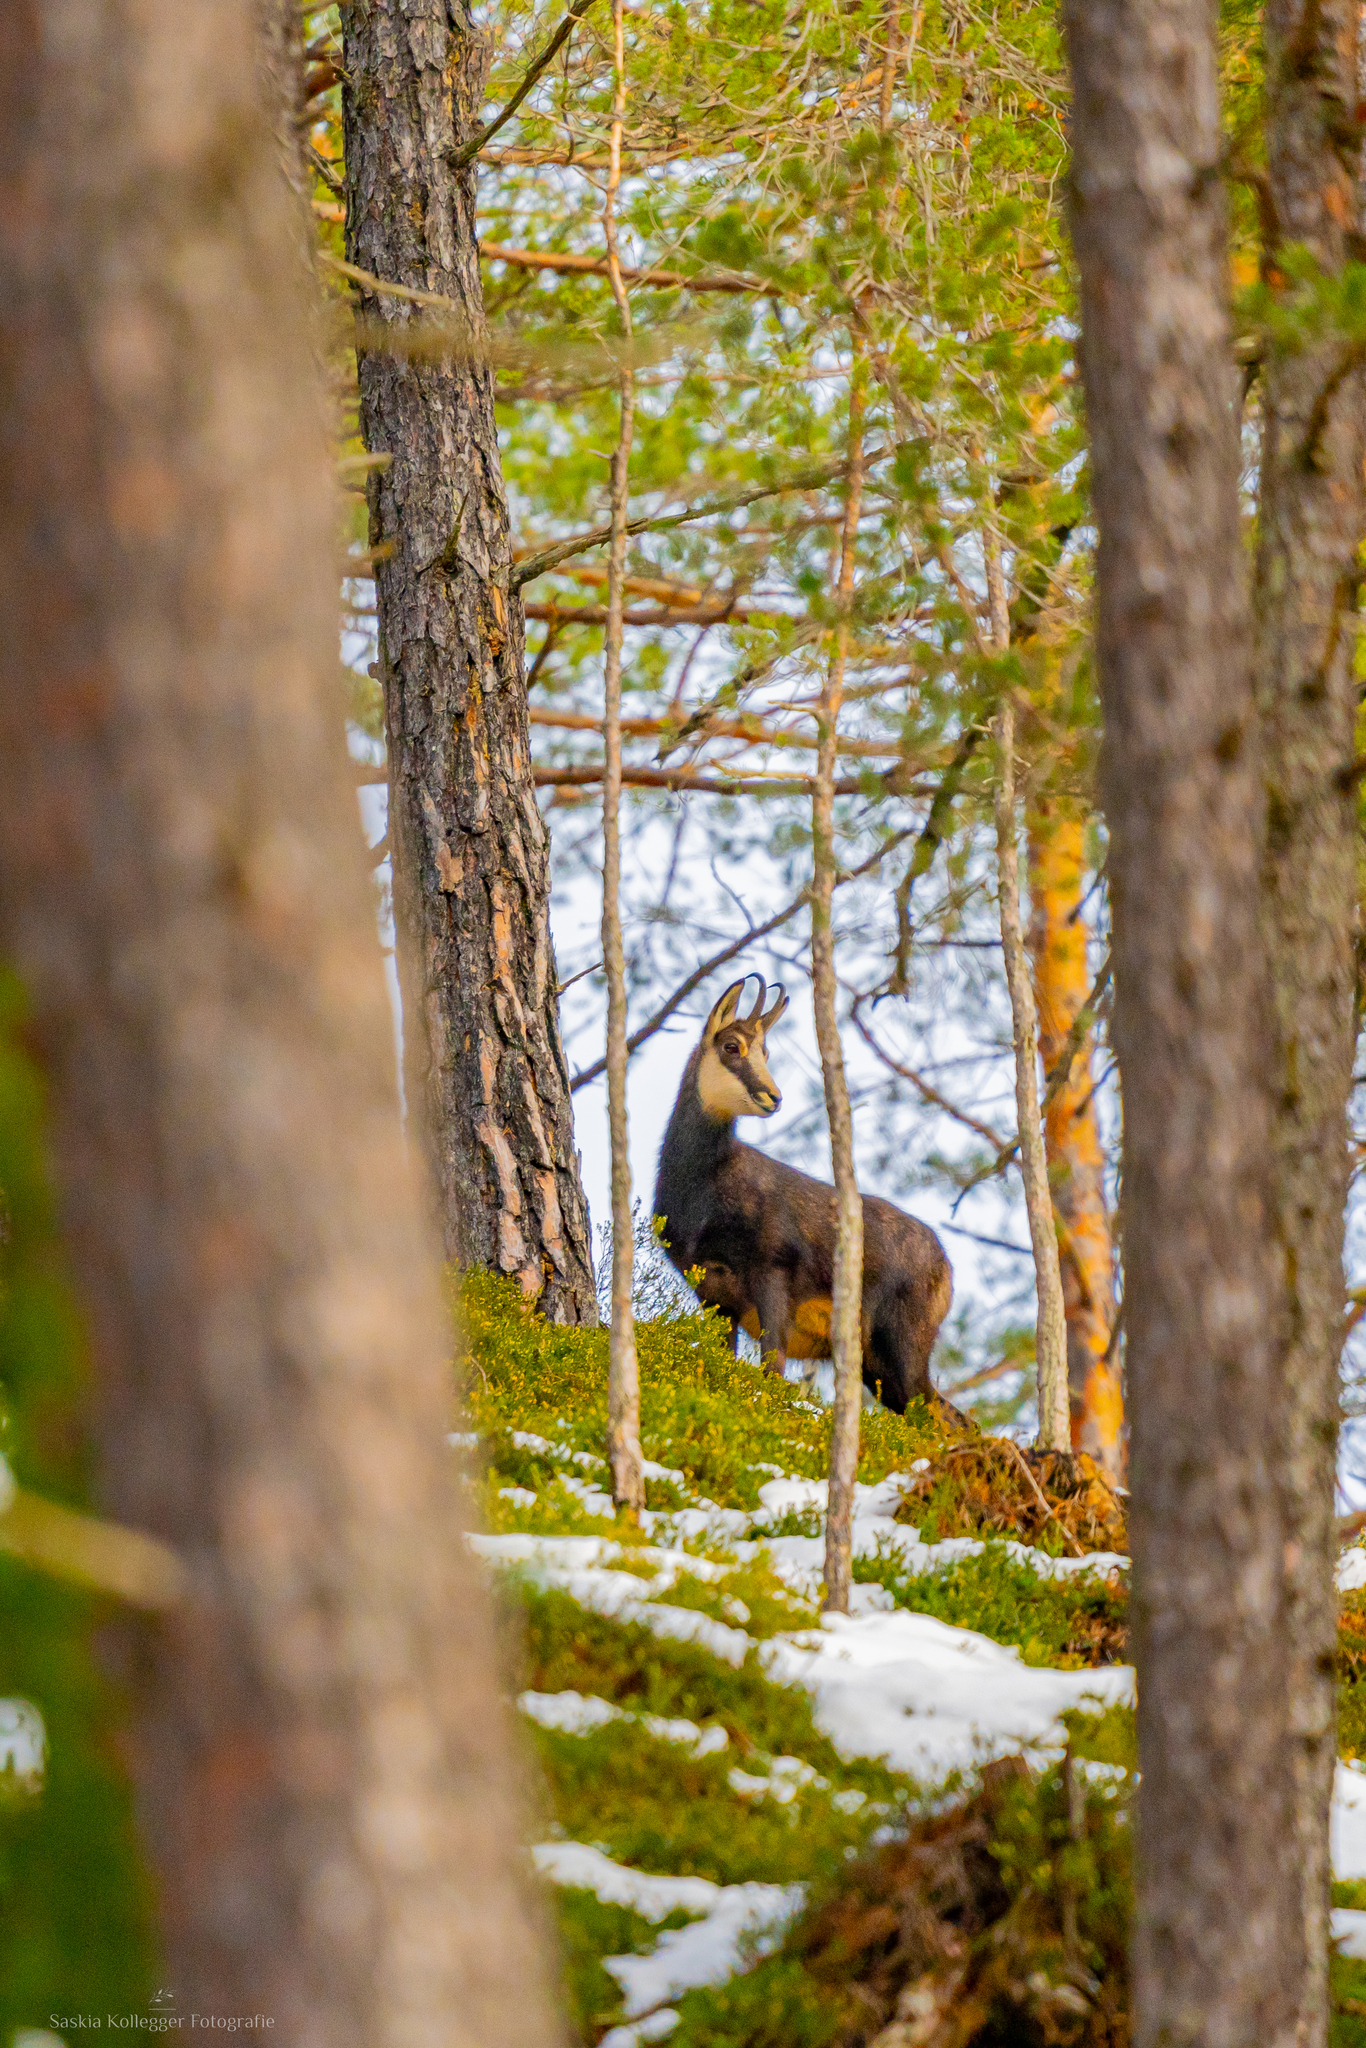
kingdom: Animalia
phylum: Chordata
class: Mammalia
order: Artiodactyla
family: Bovidae
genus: Rupicapra
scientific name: Rupicapra rupicapra
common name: Chamois
